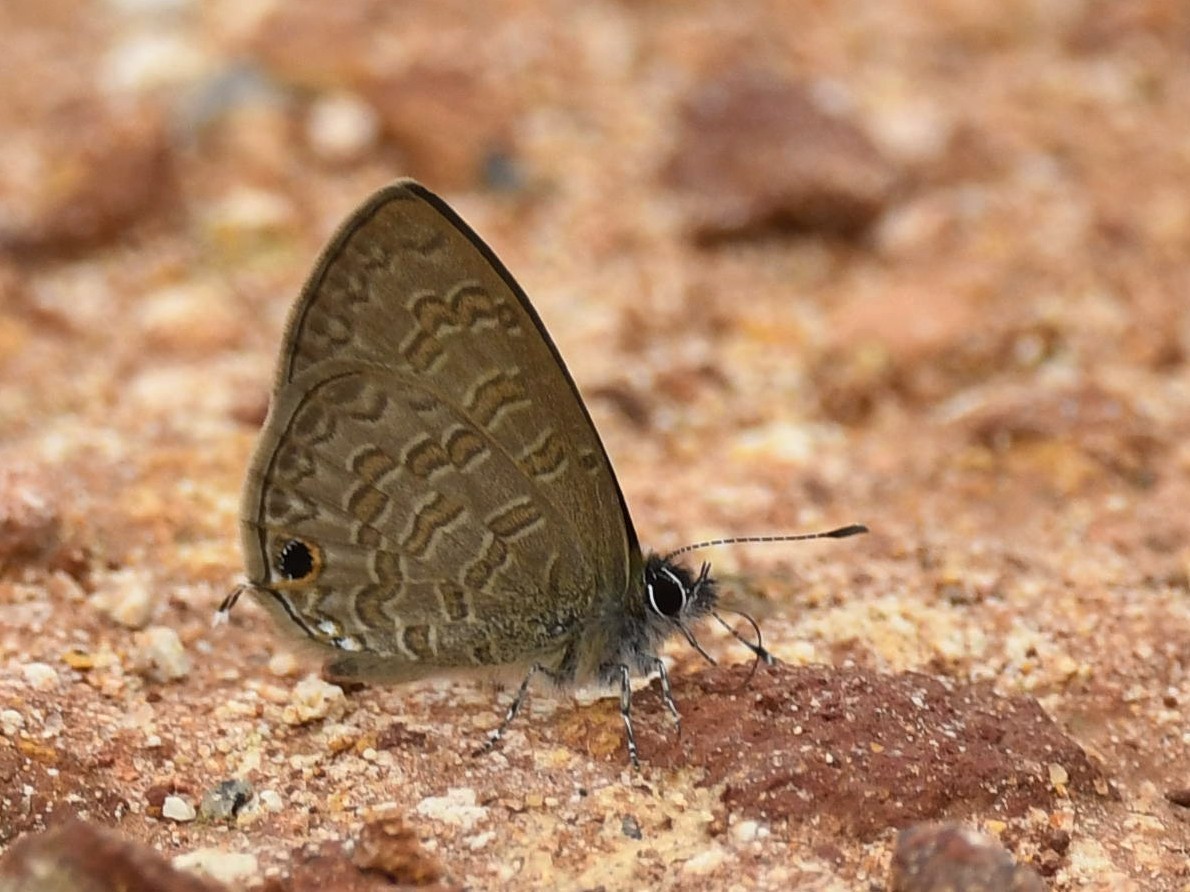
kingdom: Animalia
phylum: Arthropoda
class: Insecta
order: Lepidoptera
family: Lycaenidae
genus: Prosotas
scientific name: Prosotas nora
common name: Common line blue
